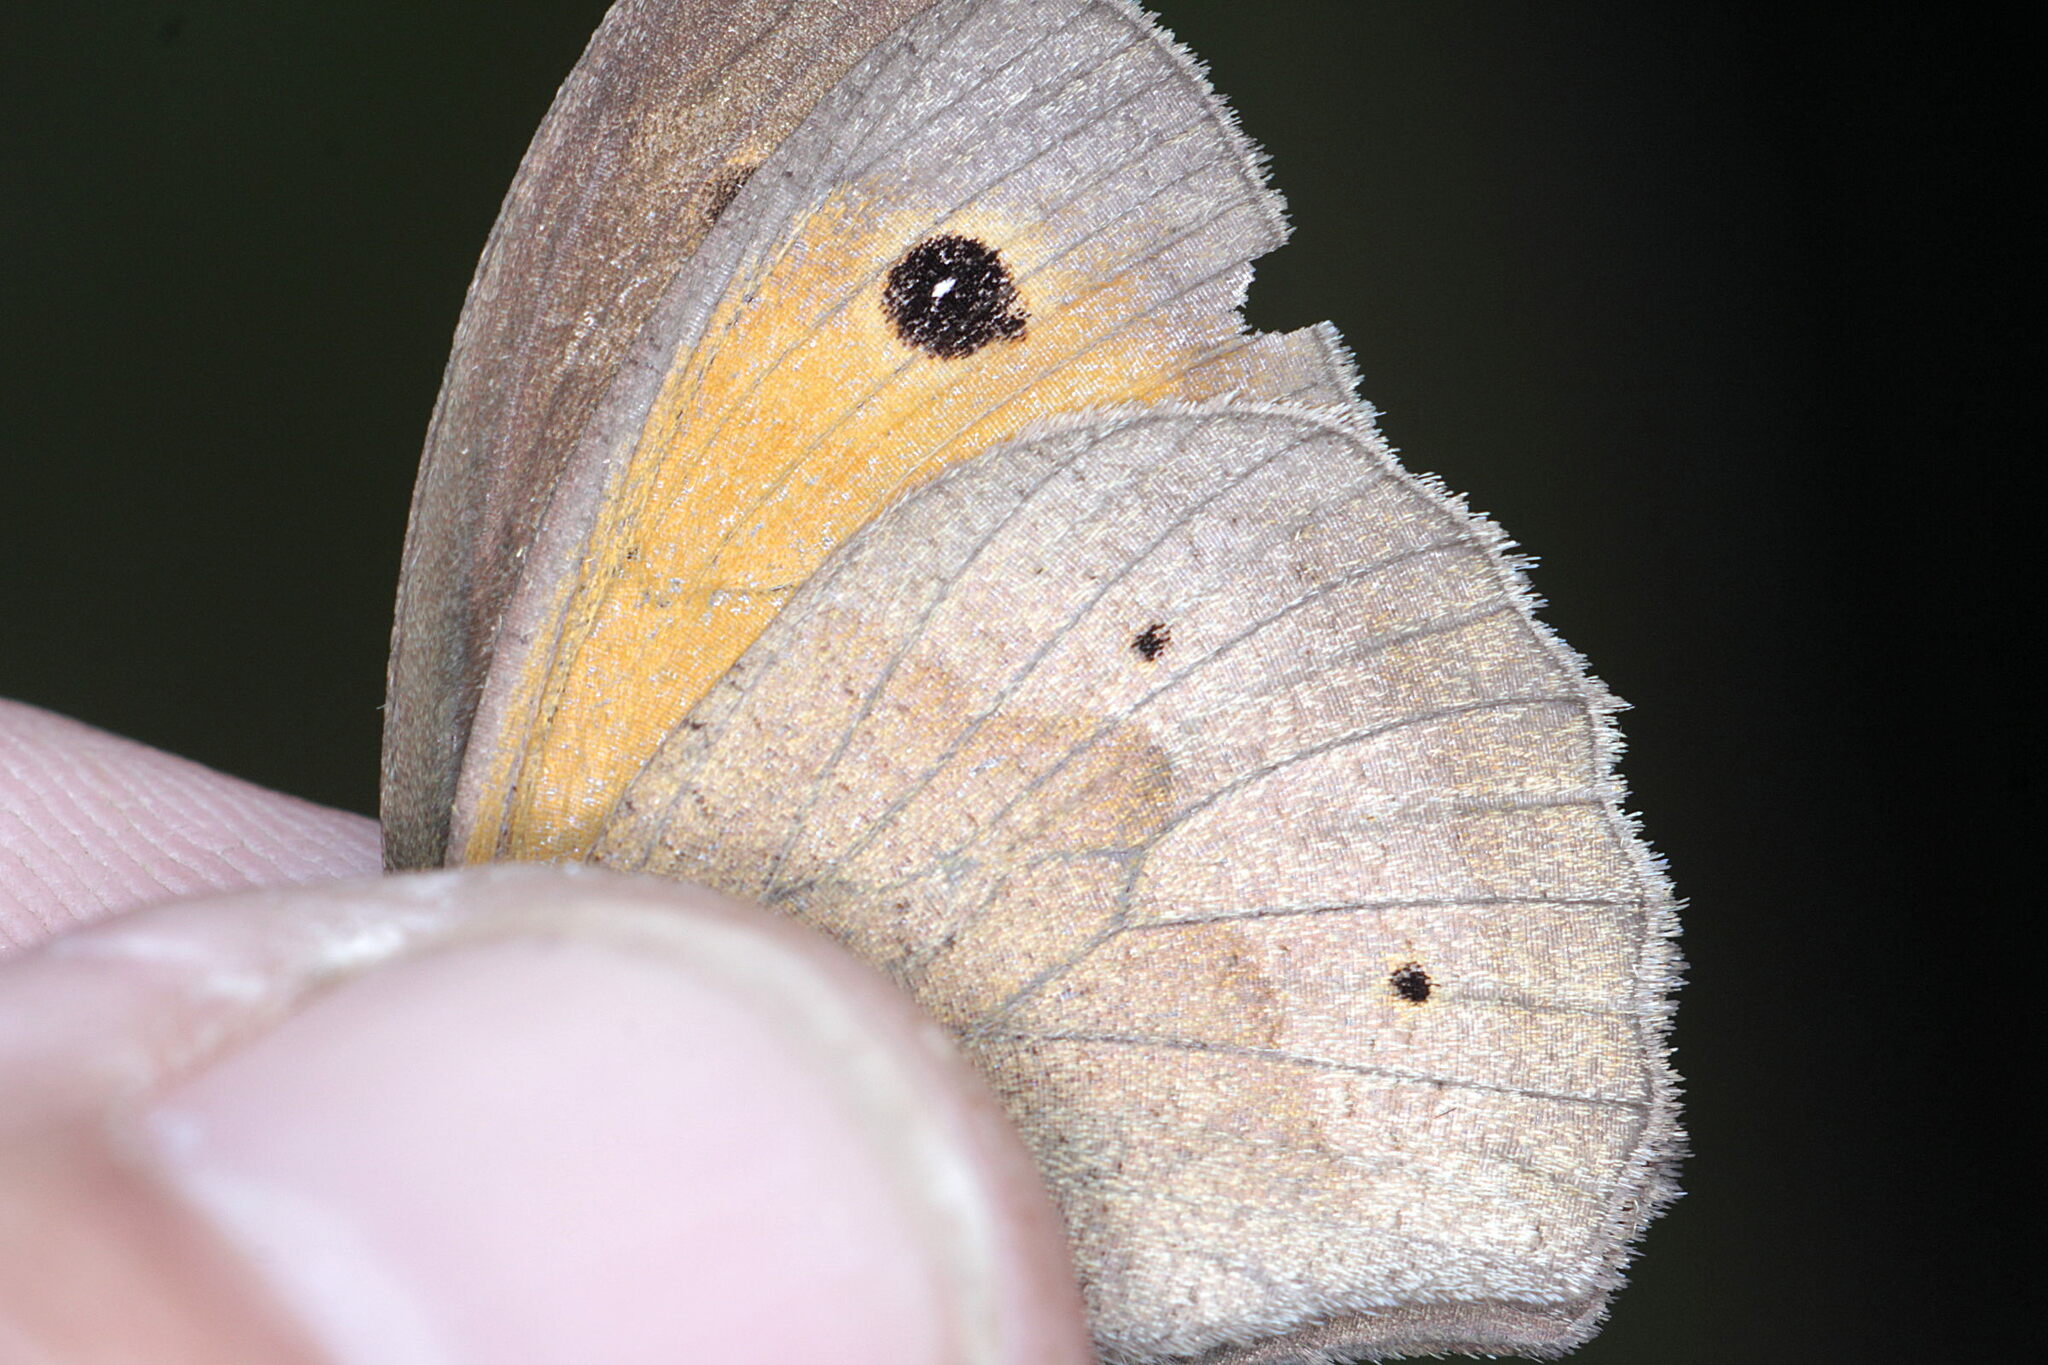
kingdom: Animalia
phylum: Arthropoda
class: Insecta
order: Lepidoptera
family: Nymphalidae
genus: Maniola
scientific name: Maniola jurtina
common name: Meadow brown
